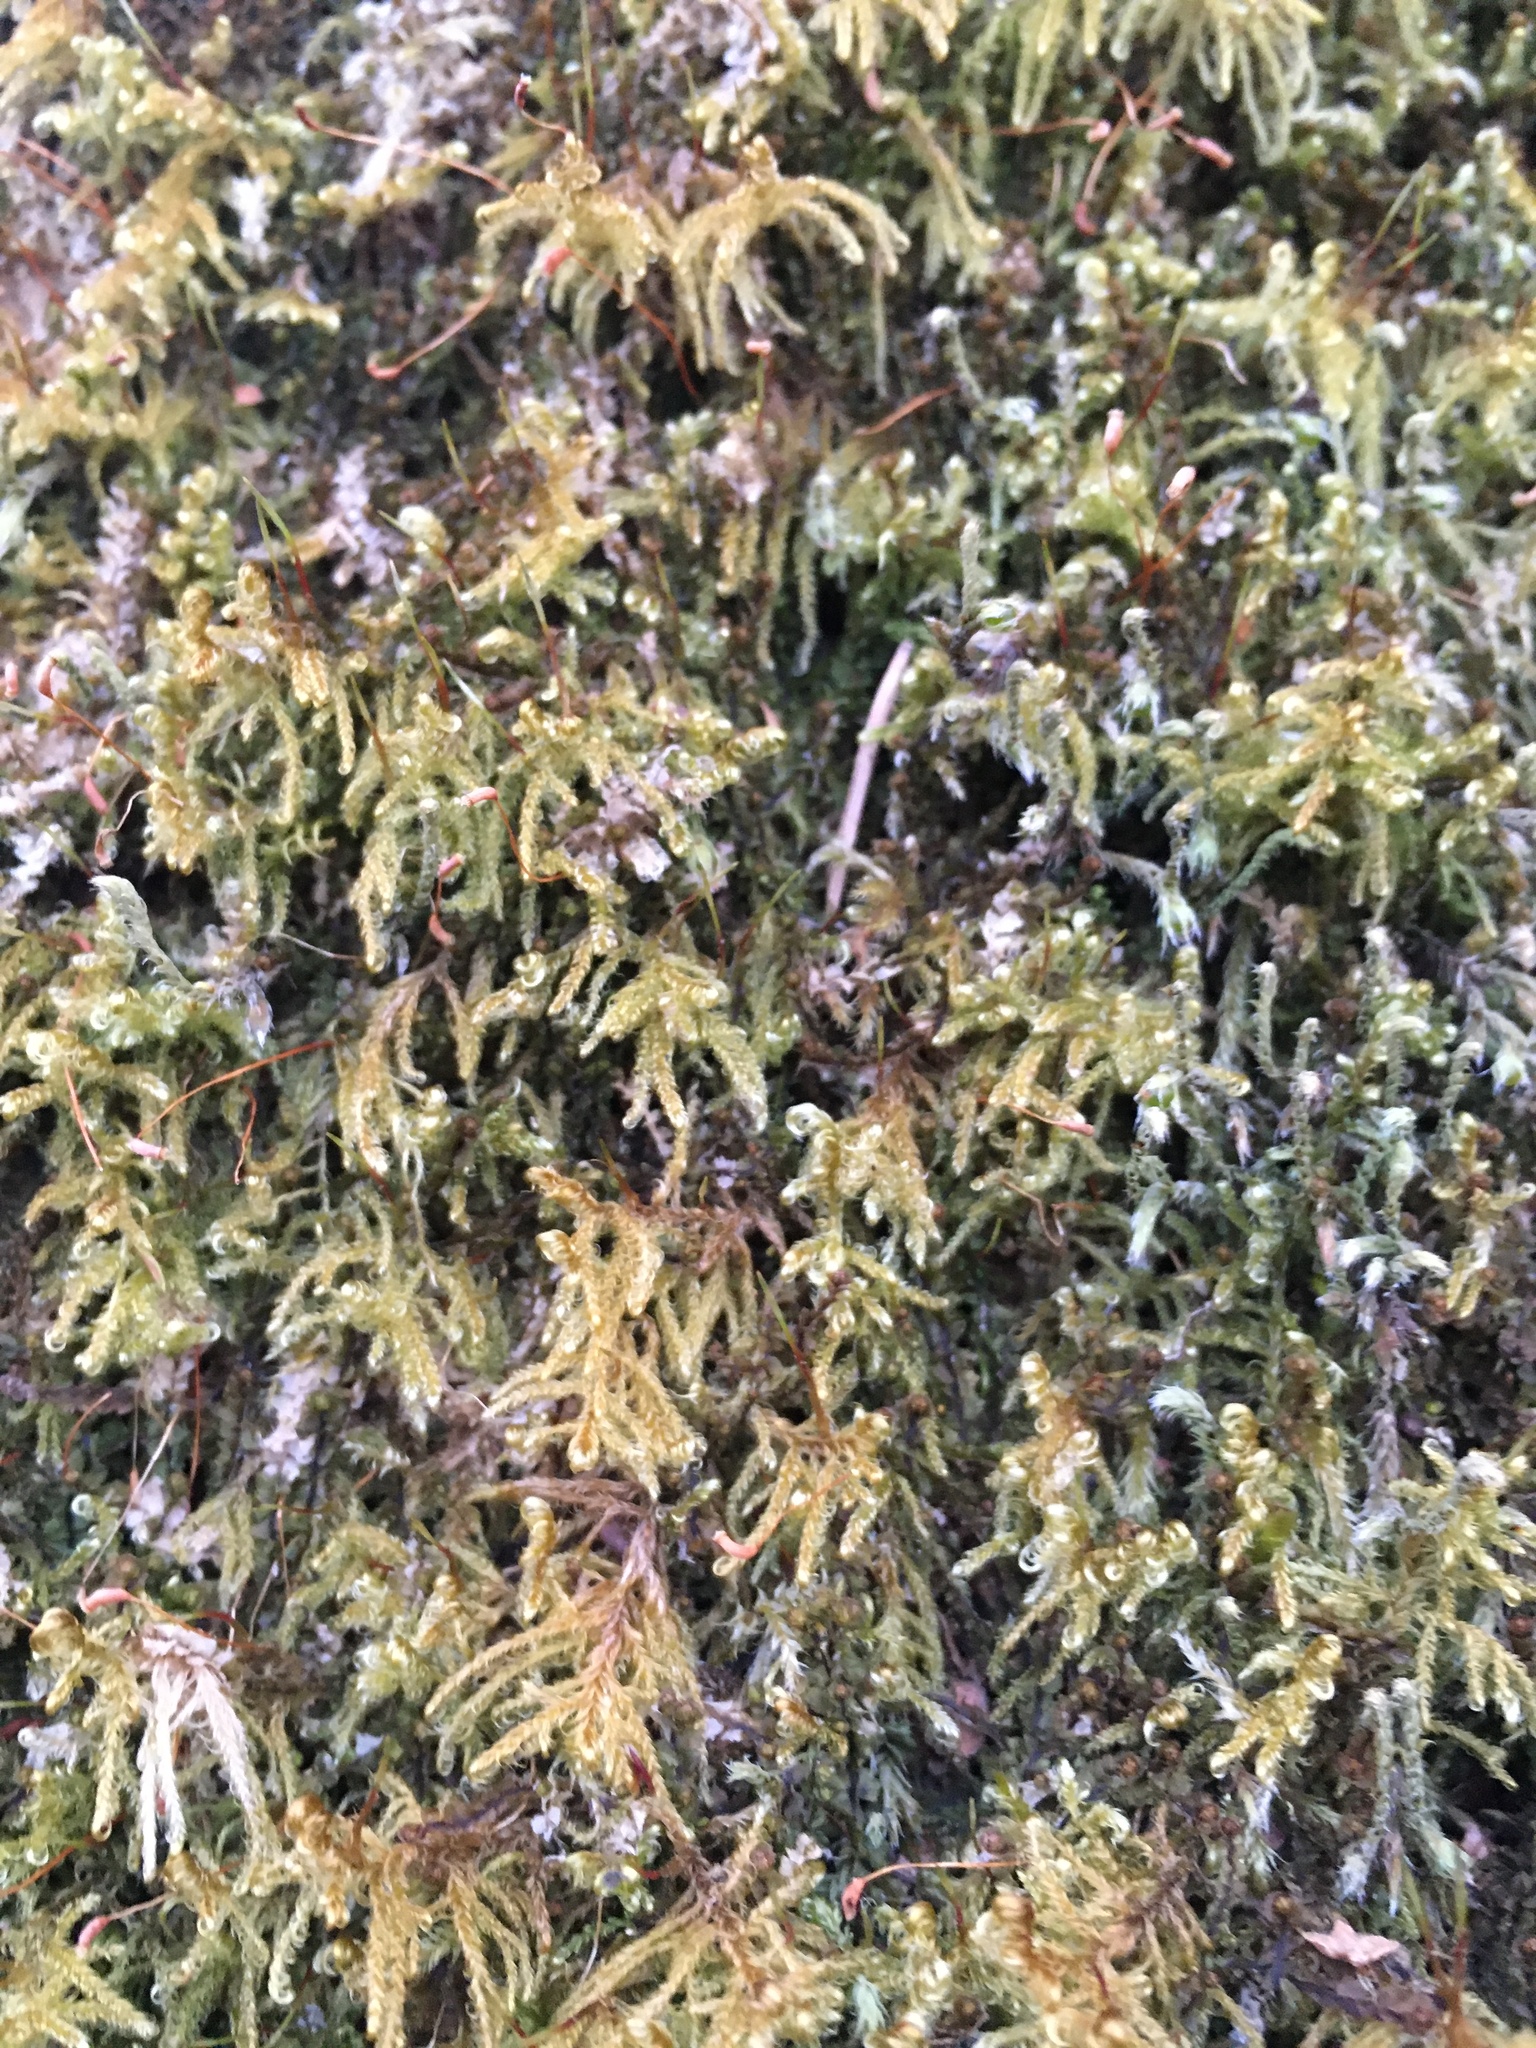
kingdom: Plantae
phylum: Bryophyta
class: Bryopsida
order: Hypnales
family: Scorpidiaceae
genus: Sanionia
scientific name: Sanionia uncinata
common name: Sickle moss
